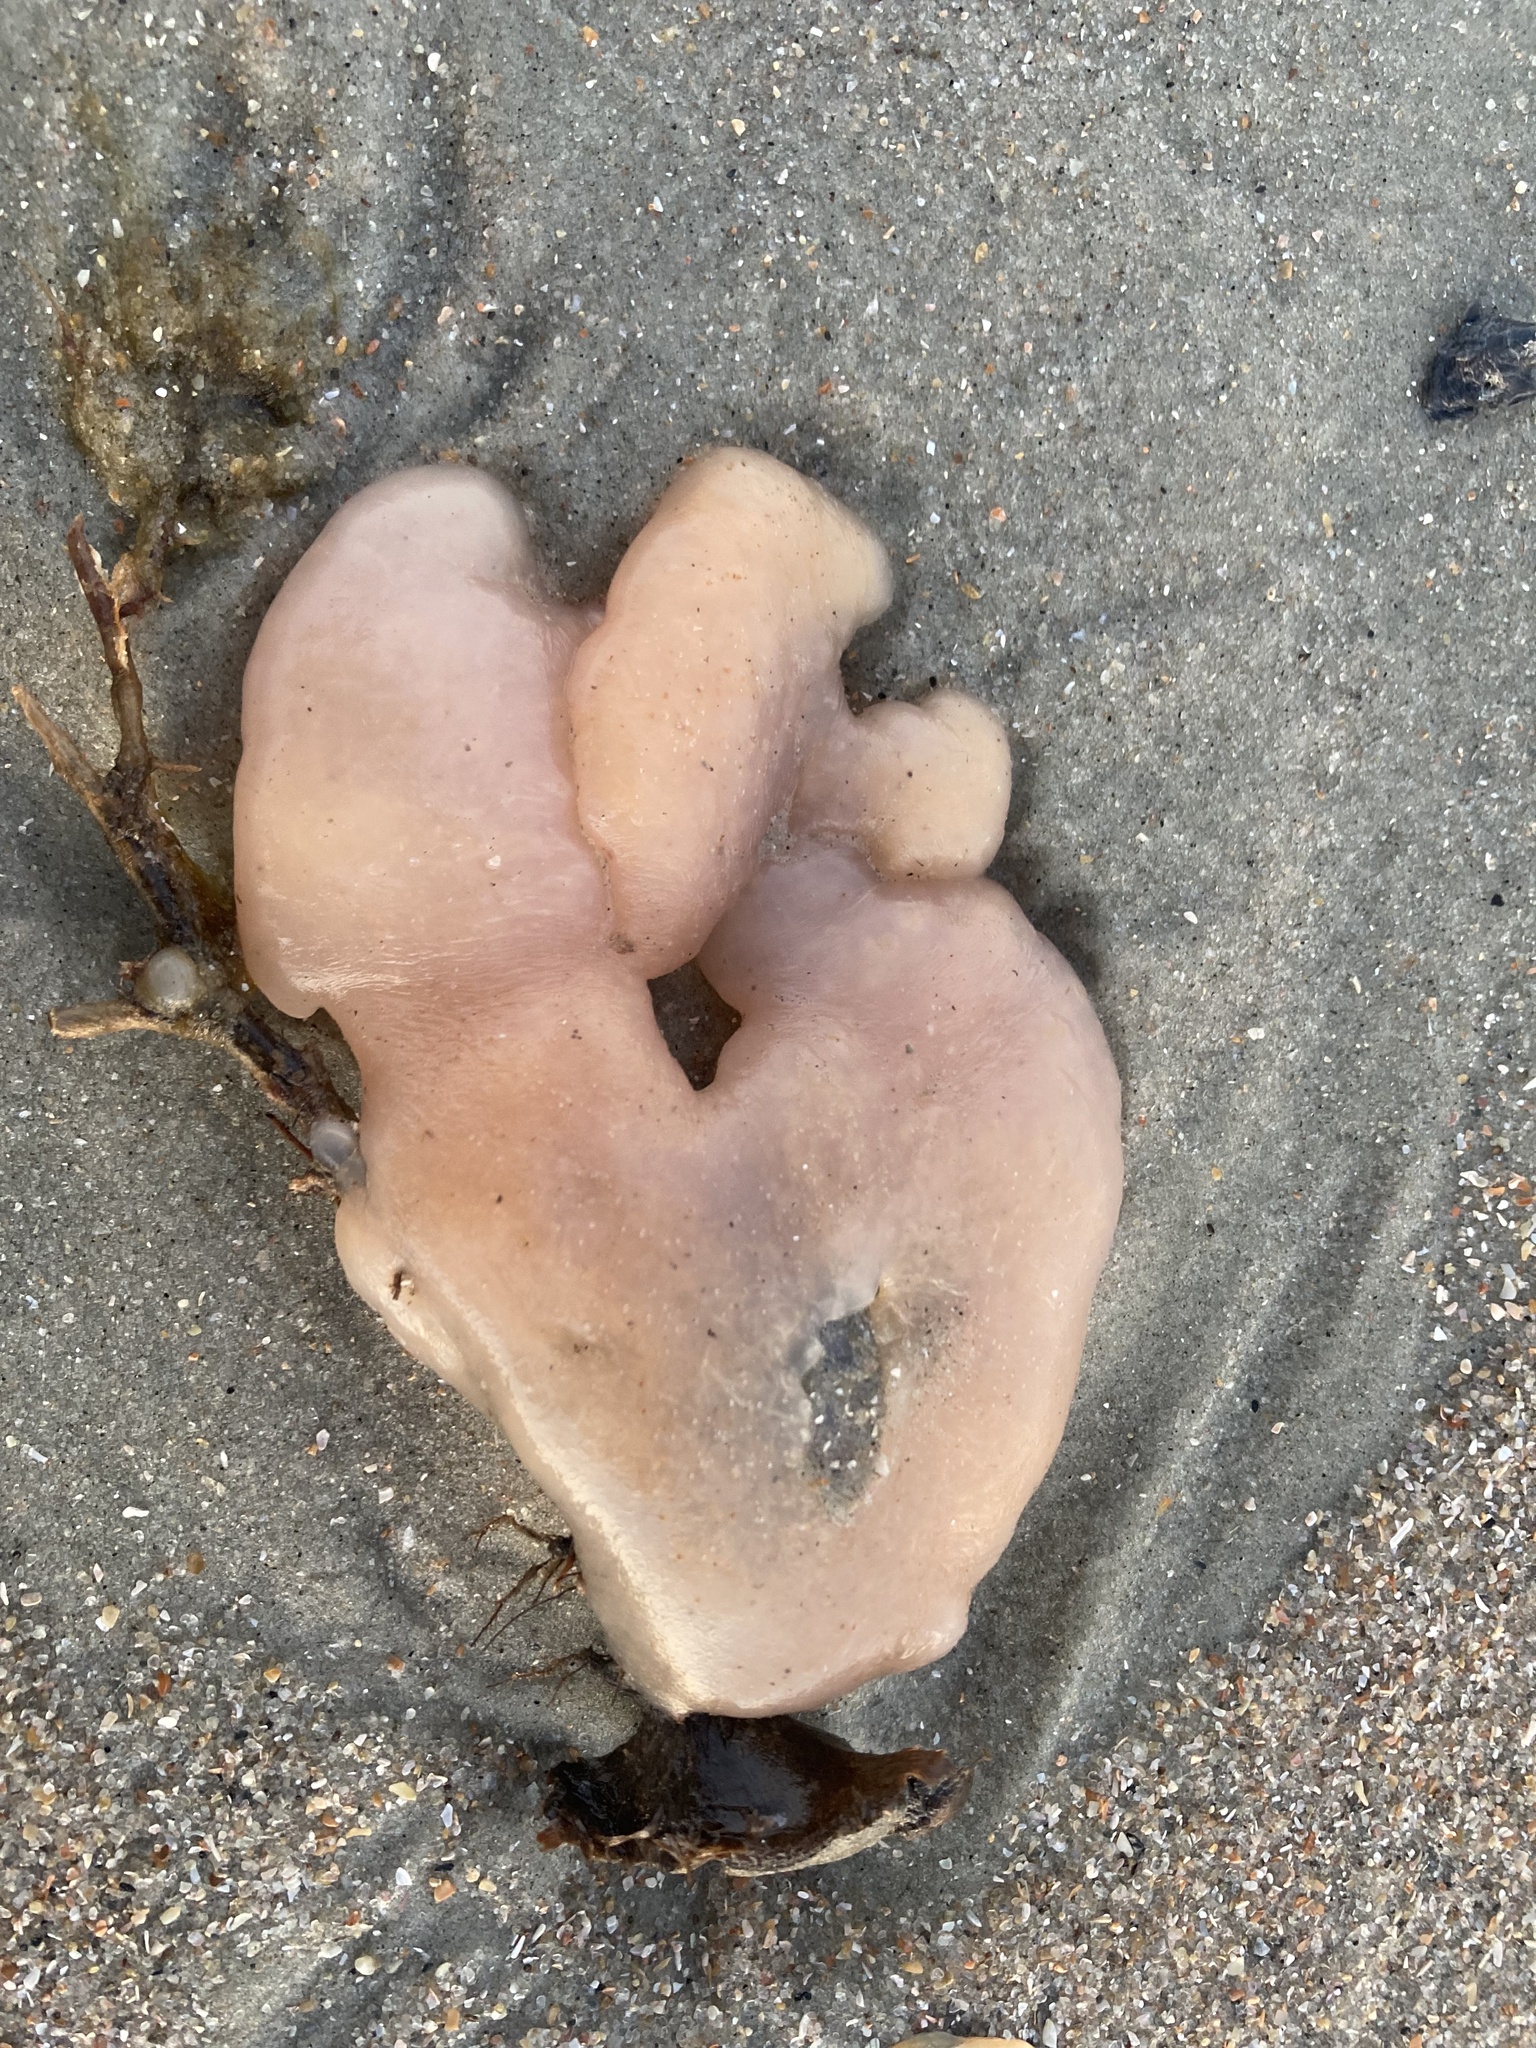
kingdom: Animalia
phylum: Chordata
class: Ascidiacea
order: Aplousobranchia
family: Polyclinidae
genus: Aplidium
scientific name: Aplidium stellatum
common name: Atlantic sea pork
